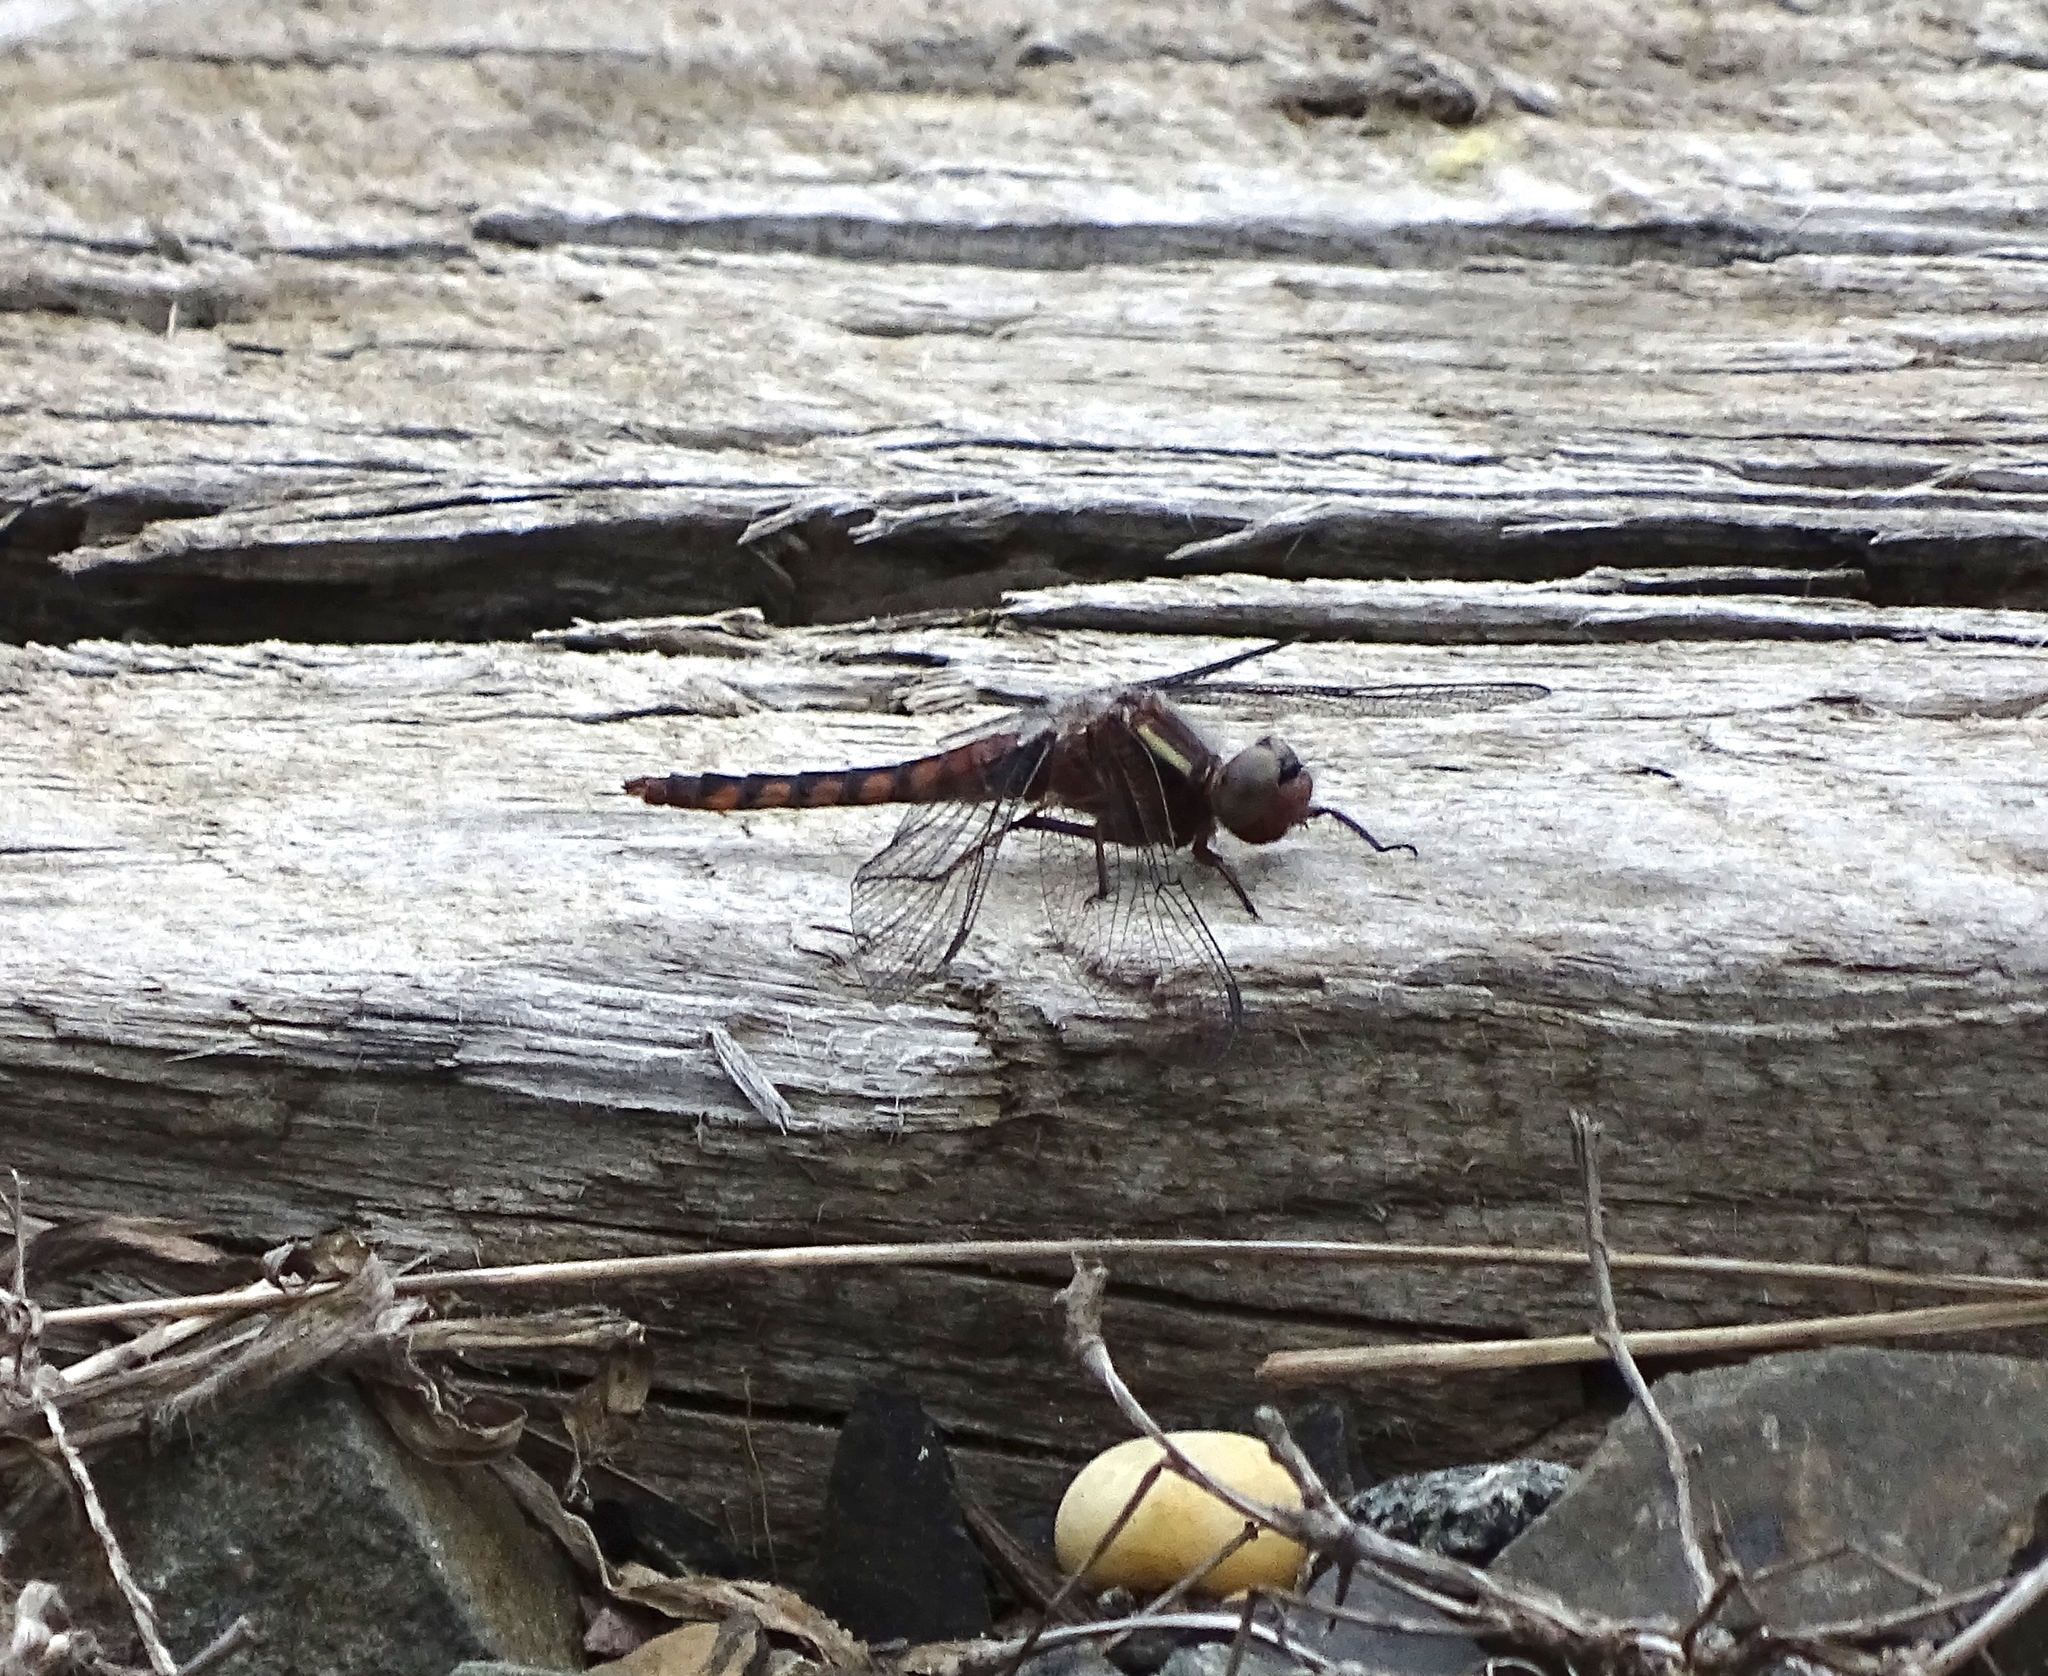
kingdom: Animalia
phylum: Arthropoda
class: Insecta
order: Odonata
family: Libellulidae
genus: Ladona
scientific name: Ladona deplanata
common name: Blue corporal
